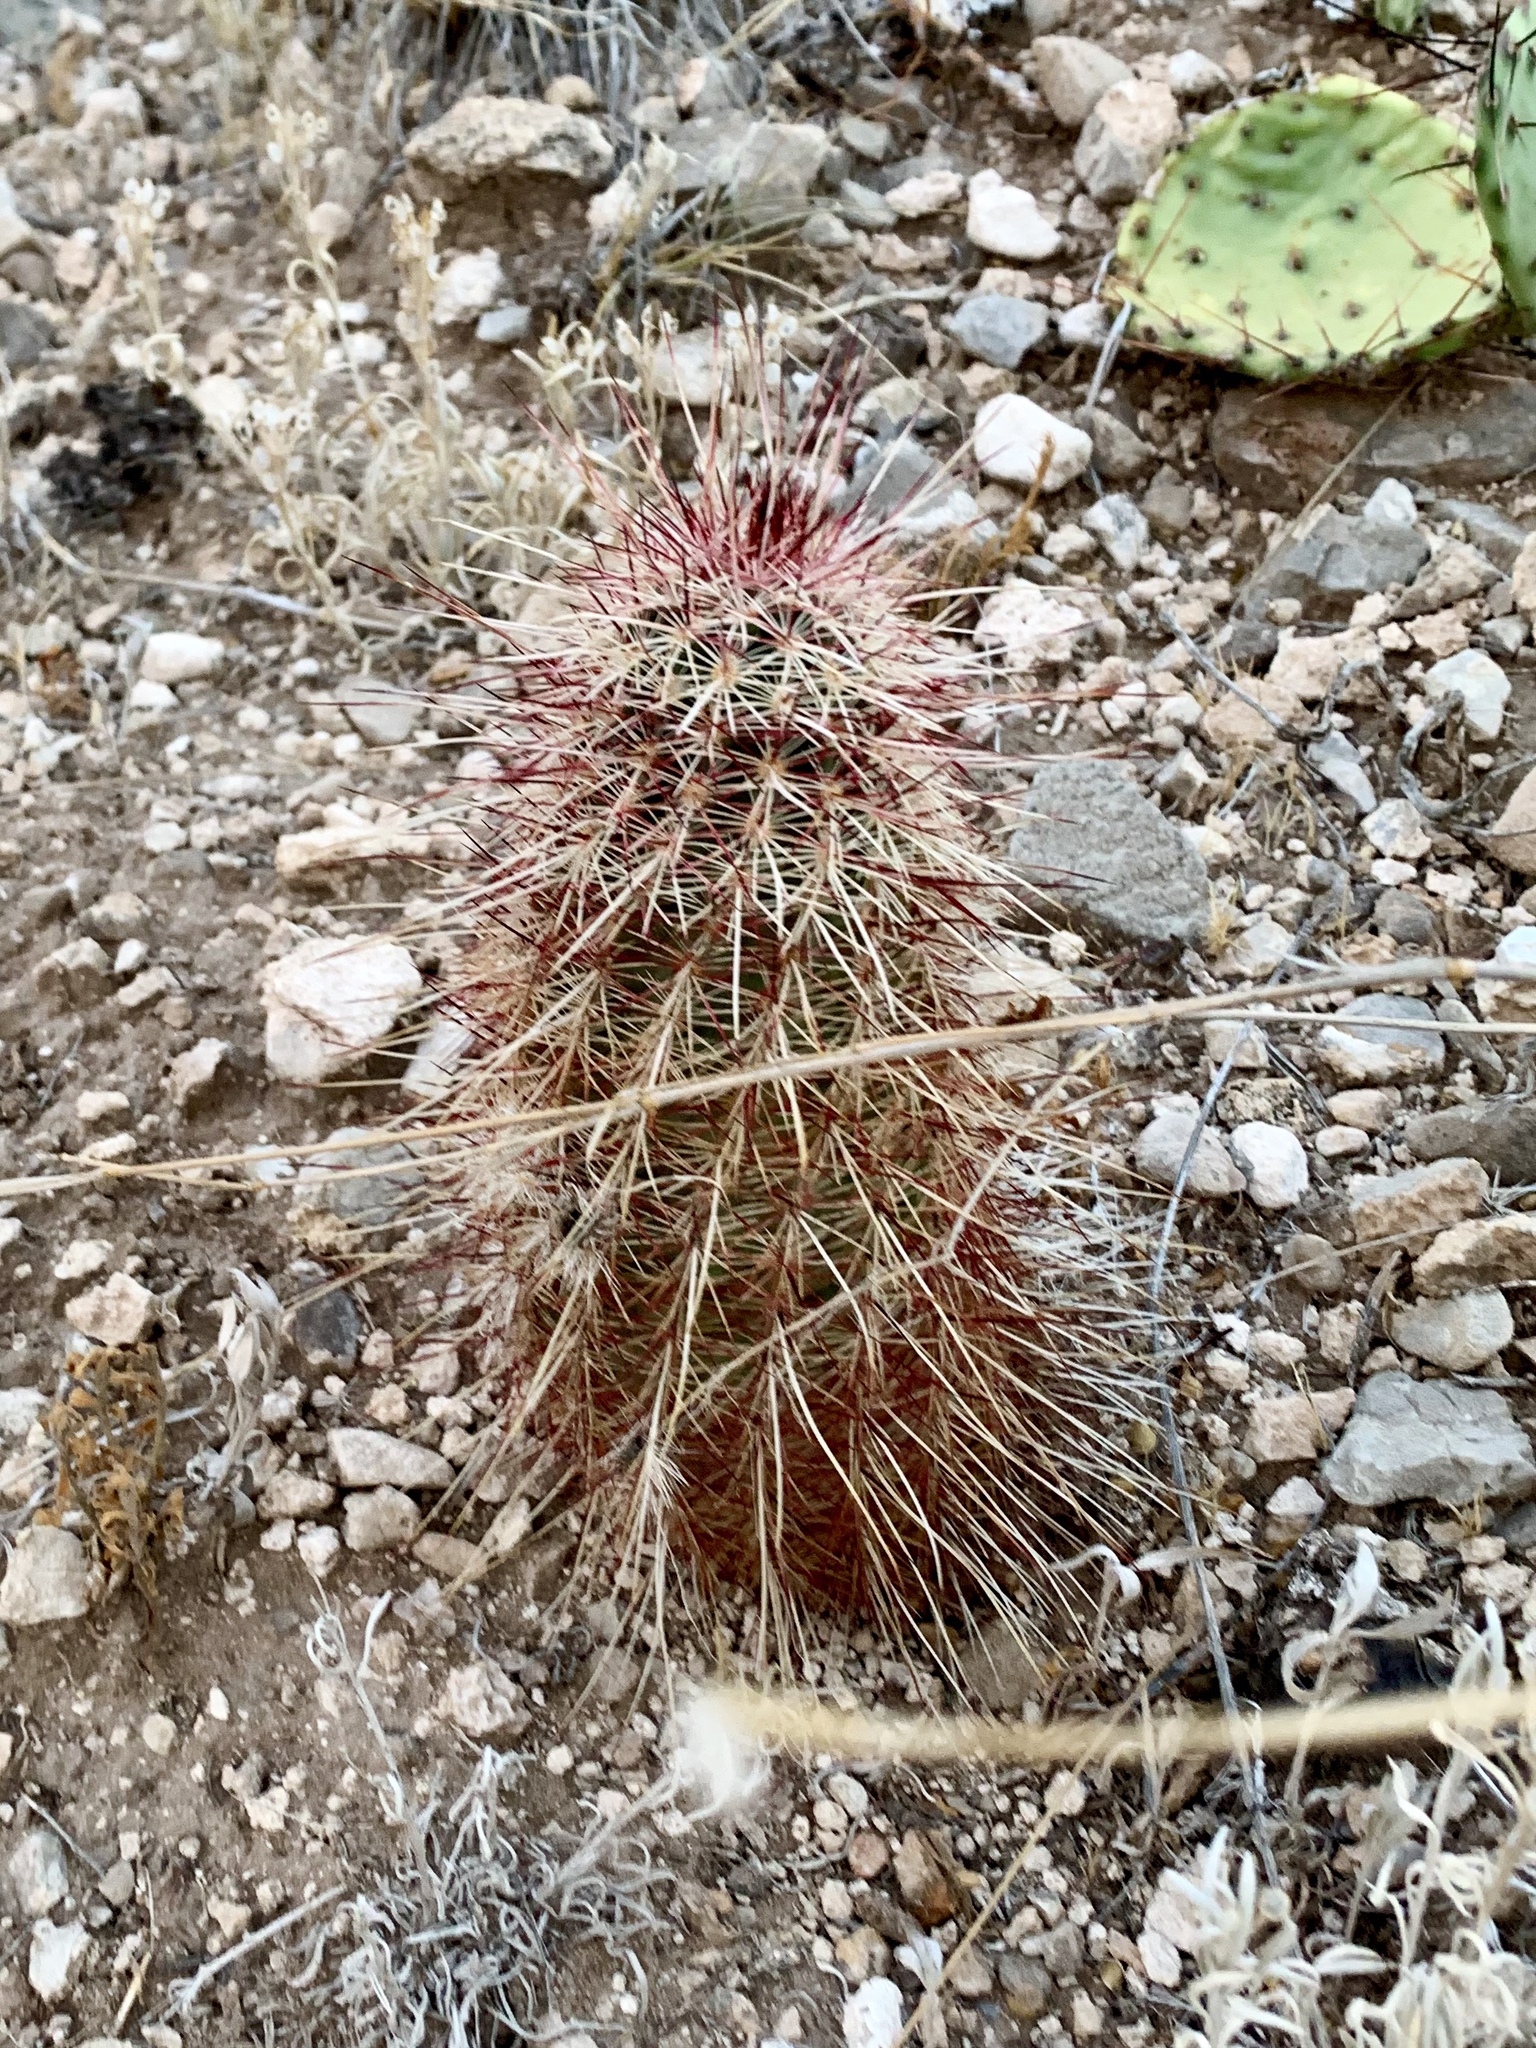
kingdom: Plantae
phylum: Tracheophyta
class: Magnoliopsida
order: Caryophyllales
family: Cactaceae
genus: Echinocereus
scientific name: Echinocereus viridiflorus
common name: Nylon hedgehog cactus
